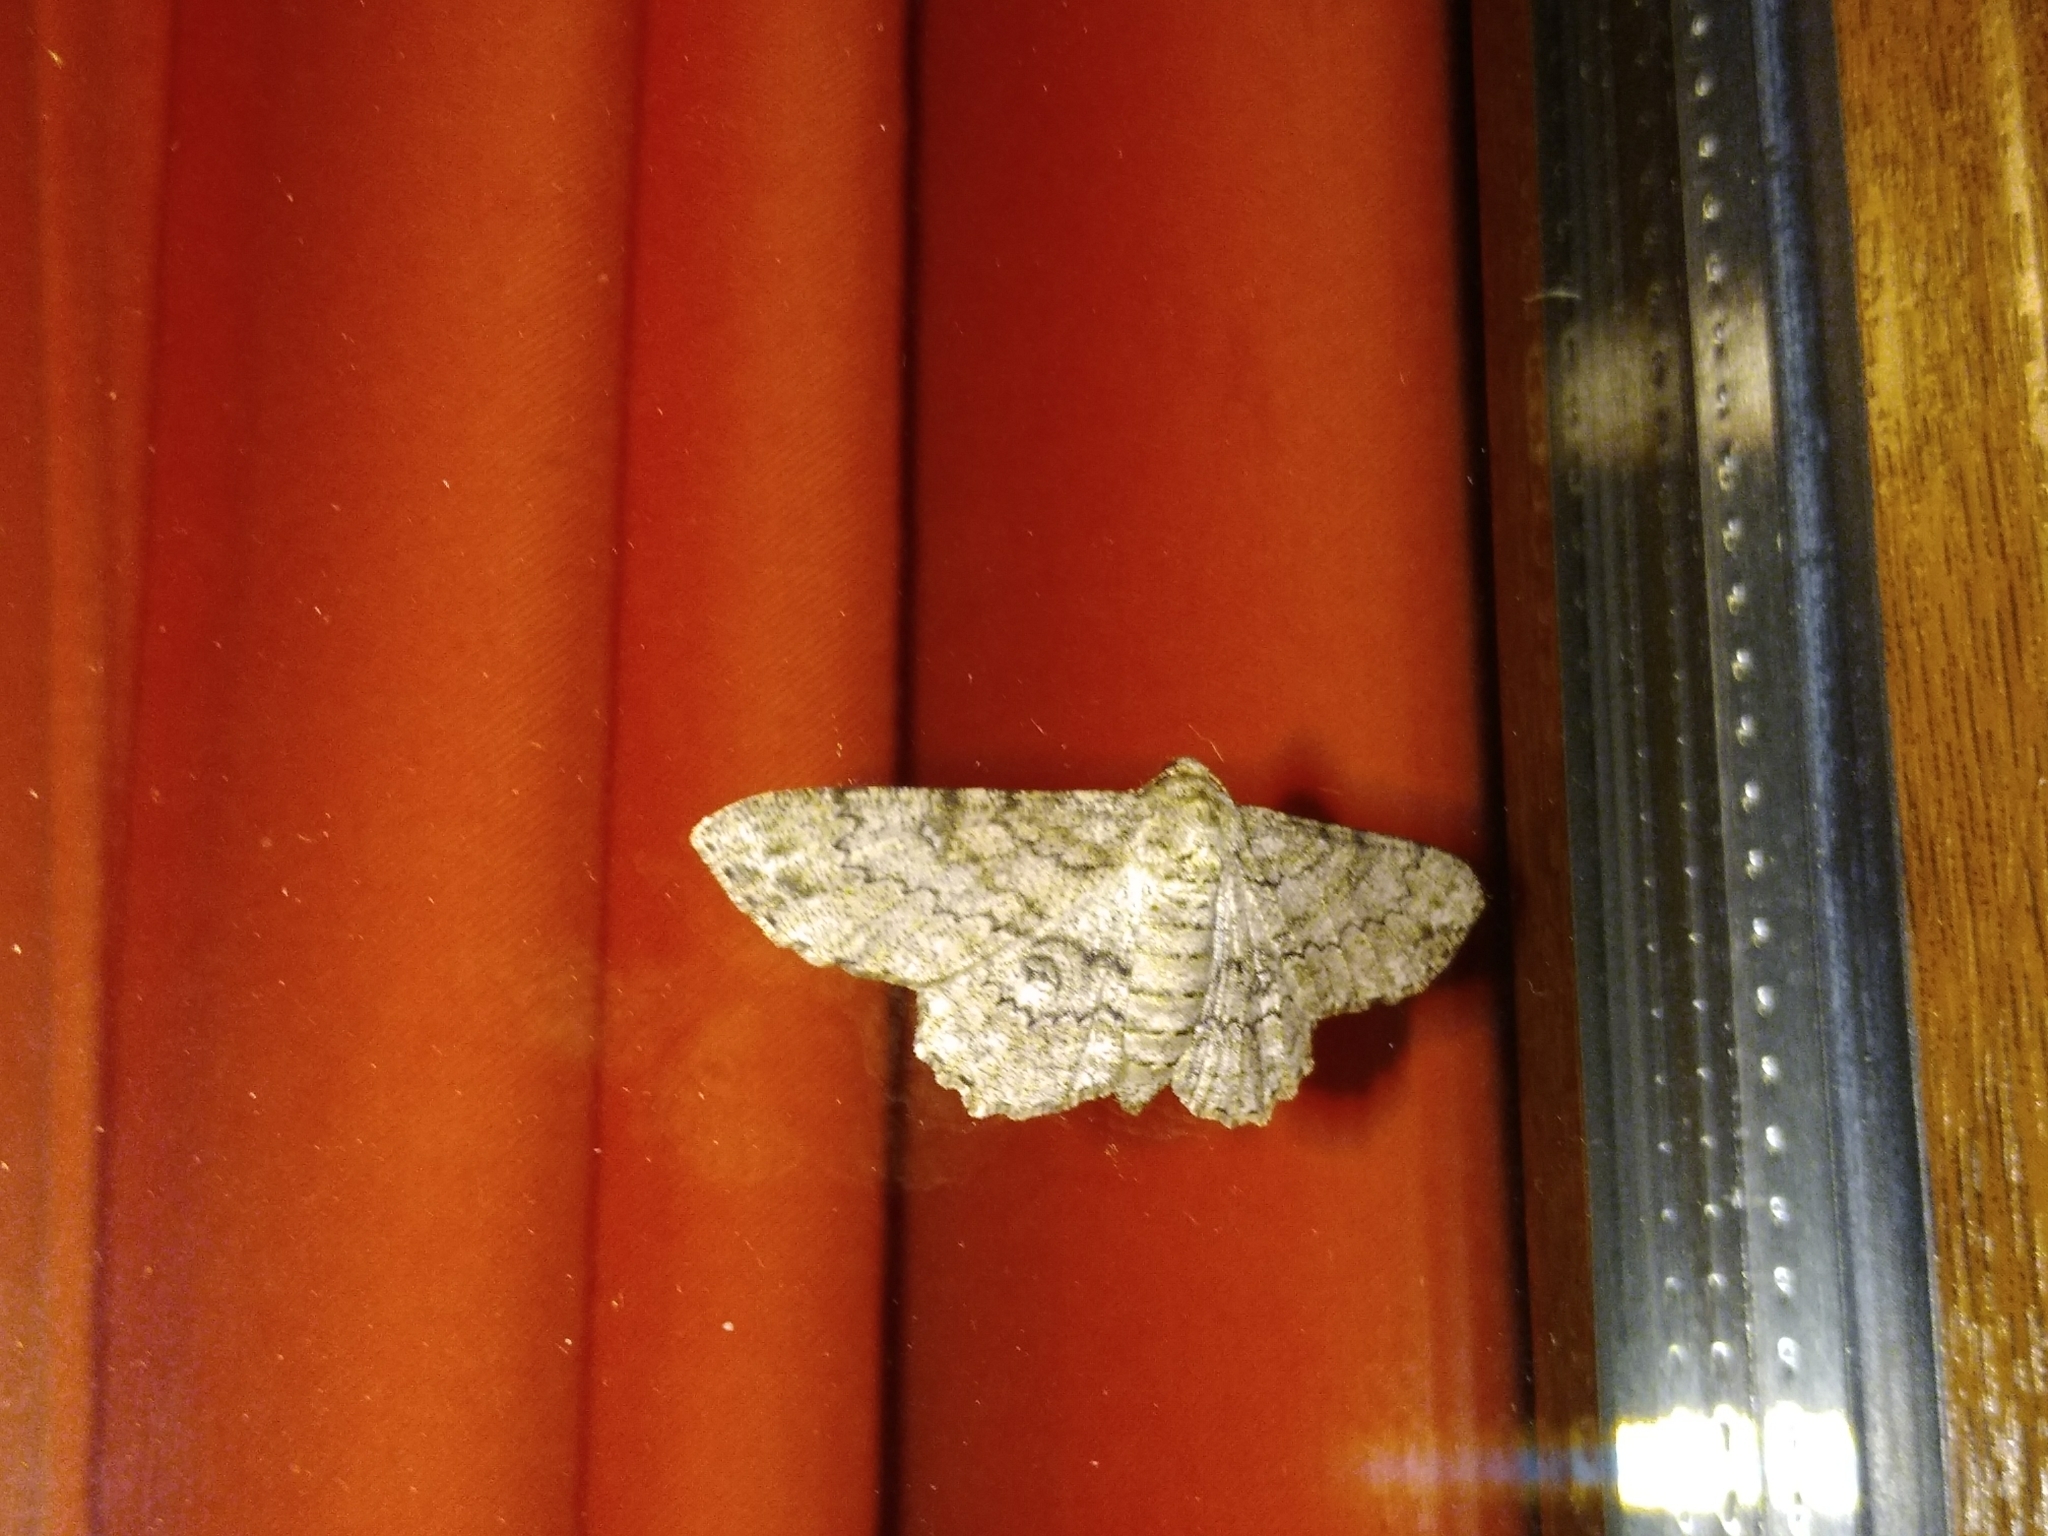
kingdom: Animalia
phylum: Arthropoda
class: Insecta
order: Lepidoptera
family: Geometridae
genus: Ascotis
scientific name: Ascotis selenaria
